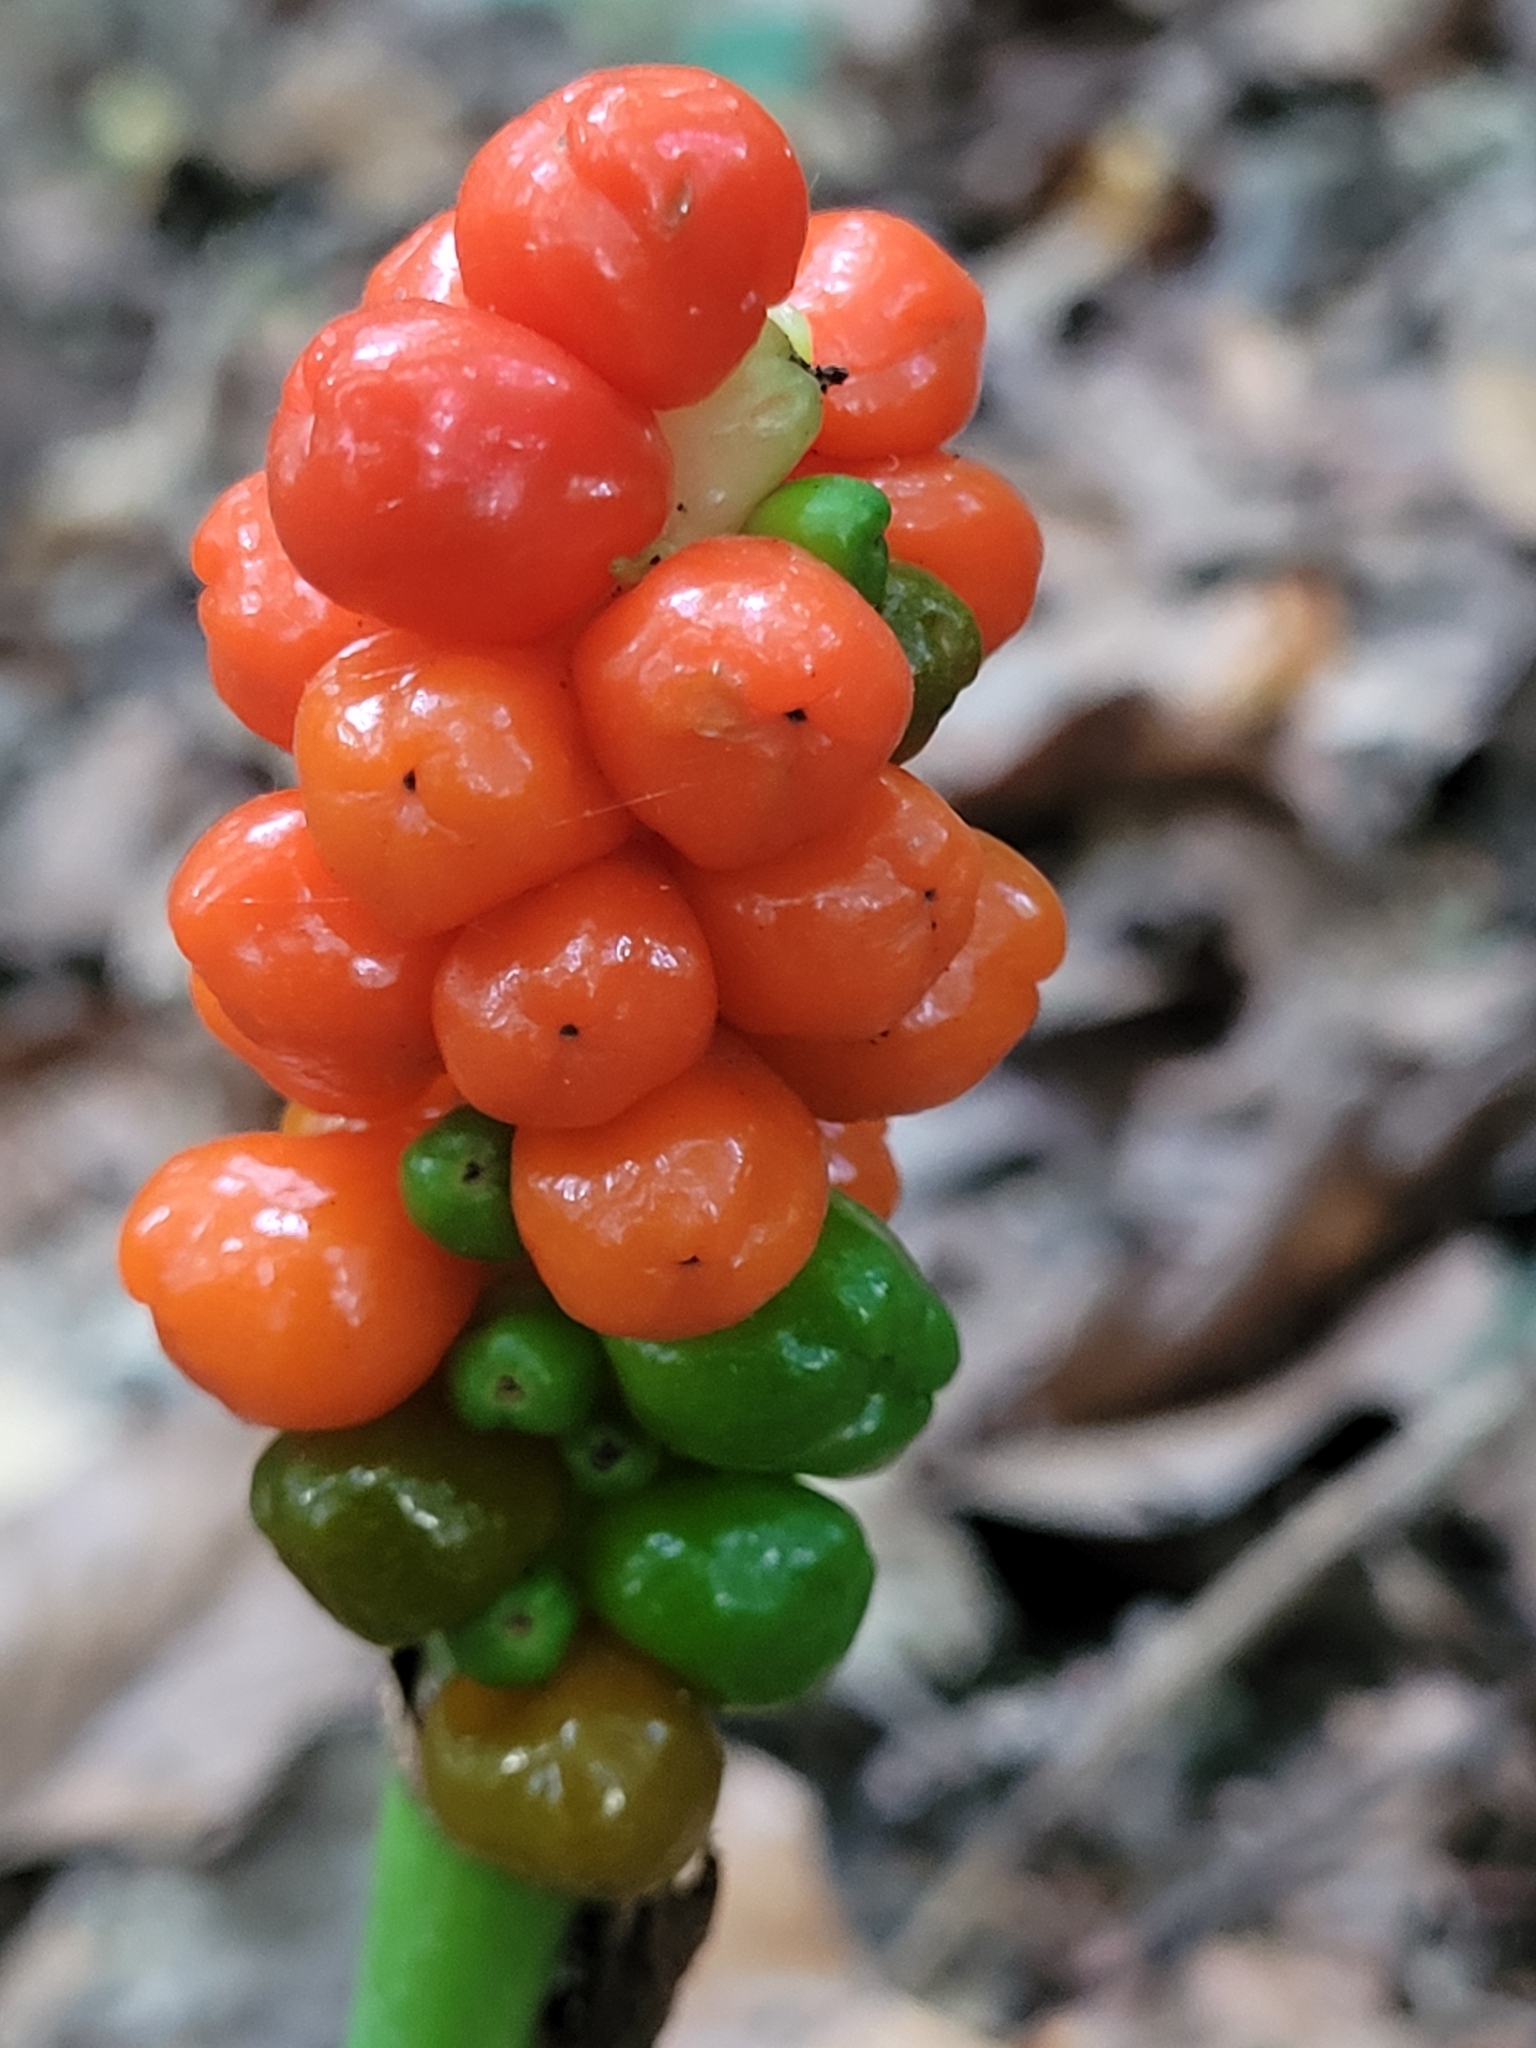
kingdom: Plantae
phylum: Tracheophyta
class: Liliopsida
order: Alismatales
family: Araceae
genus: Arum
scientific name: Arum maculatum
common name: Lords-and-ladies
